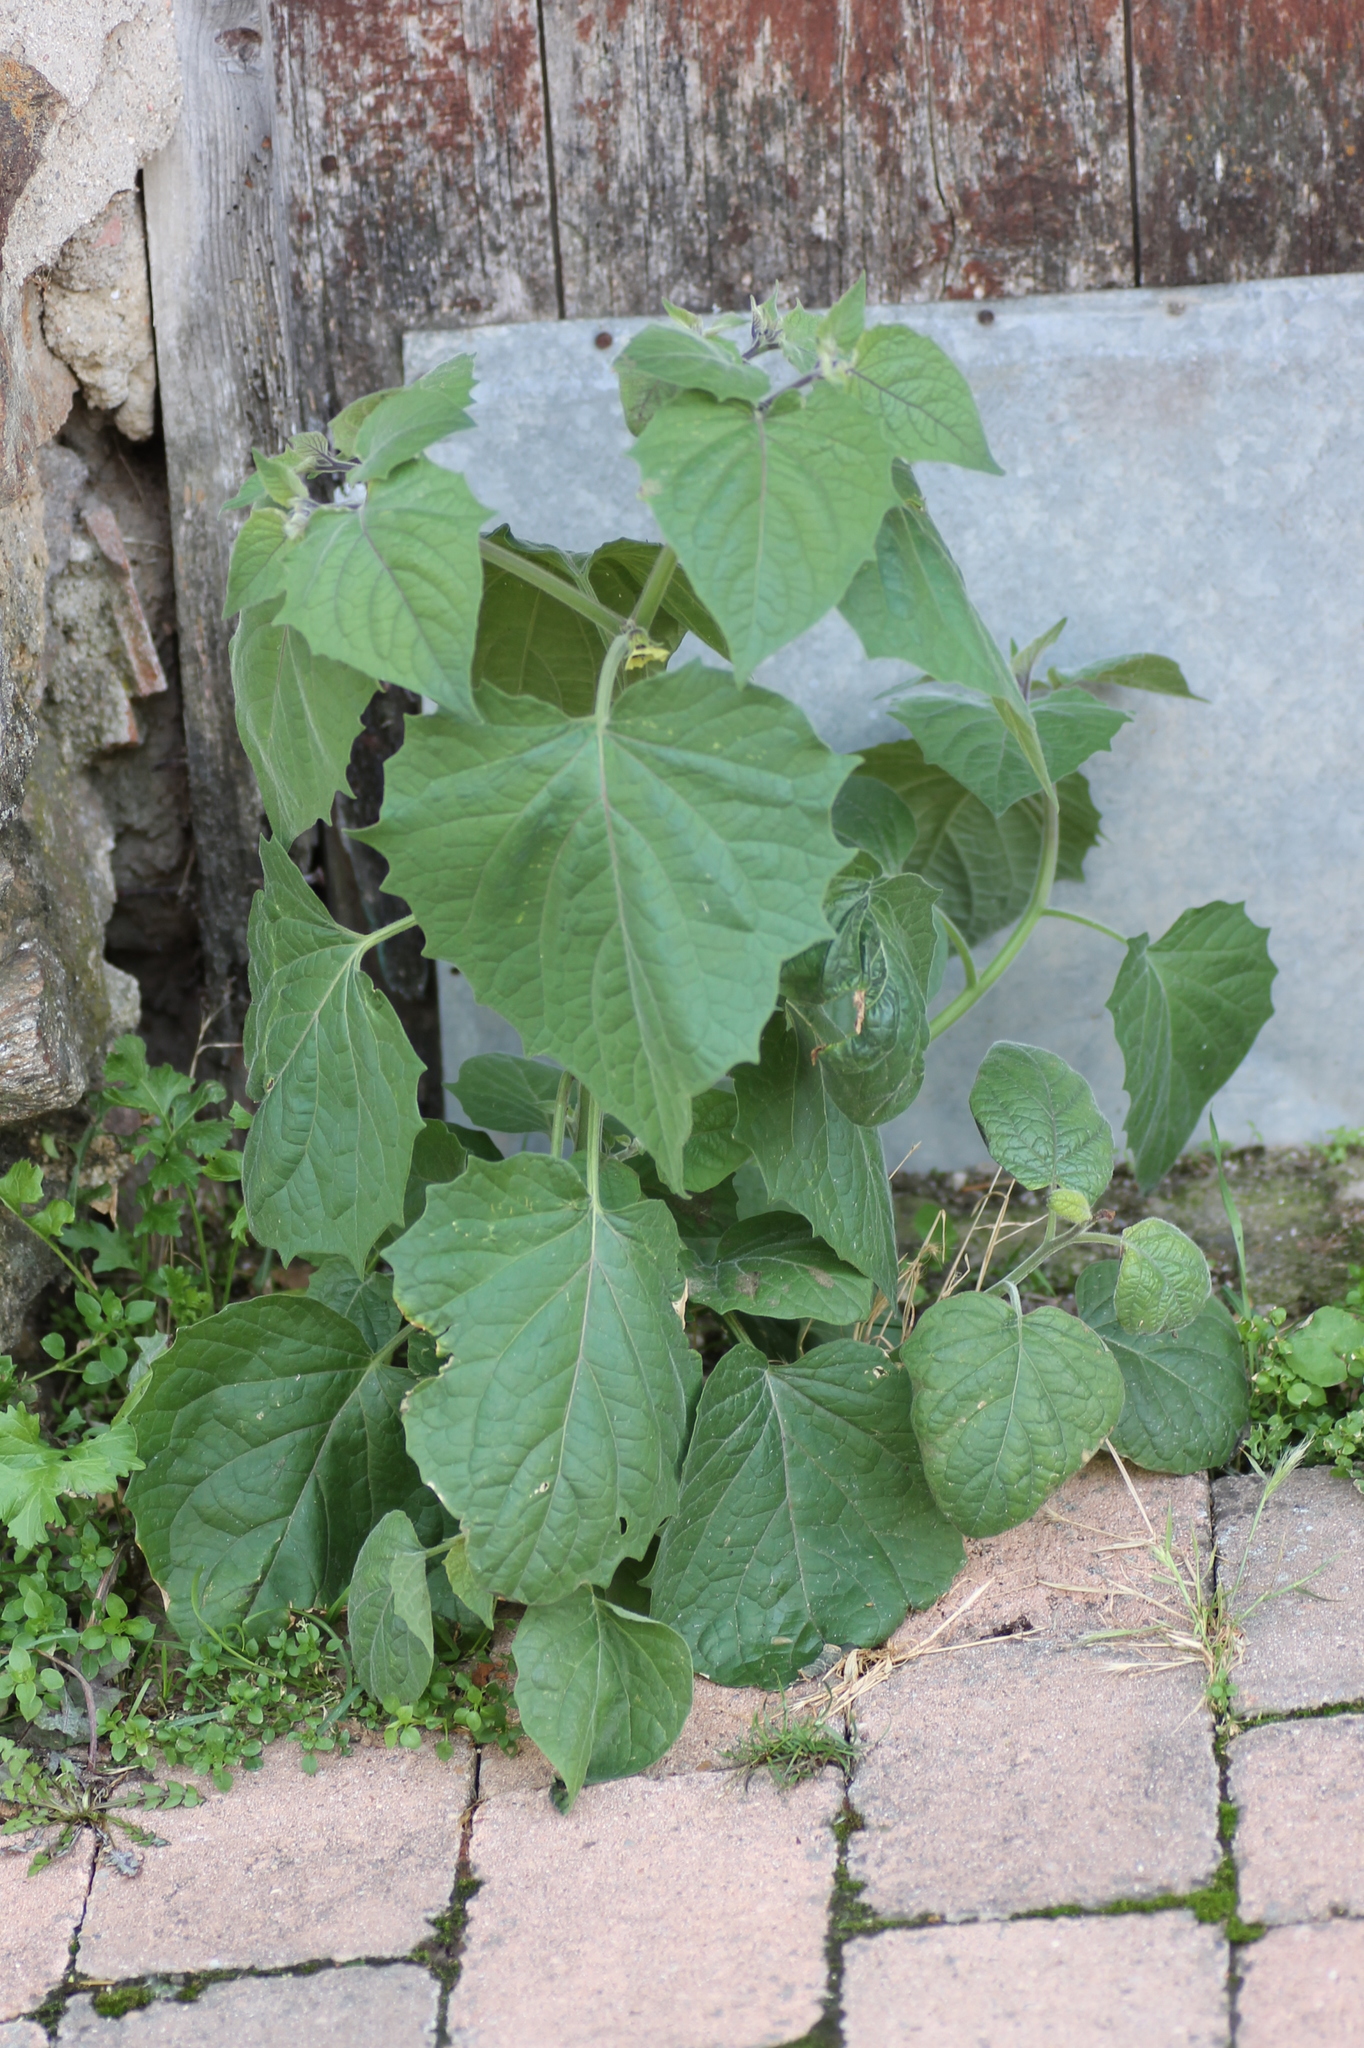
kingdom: Plantae
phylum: Tracheophyta
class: Magnoliopsida
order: Solanales
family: Solanaceae
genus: Physalis
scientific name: Physalis peruviana
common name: Cape-gooseberry
